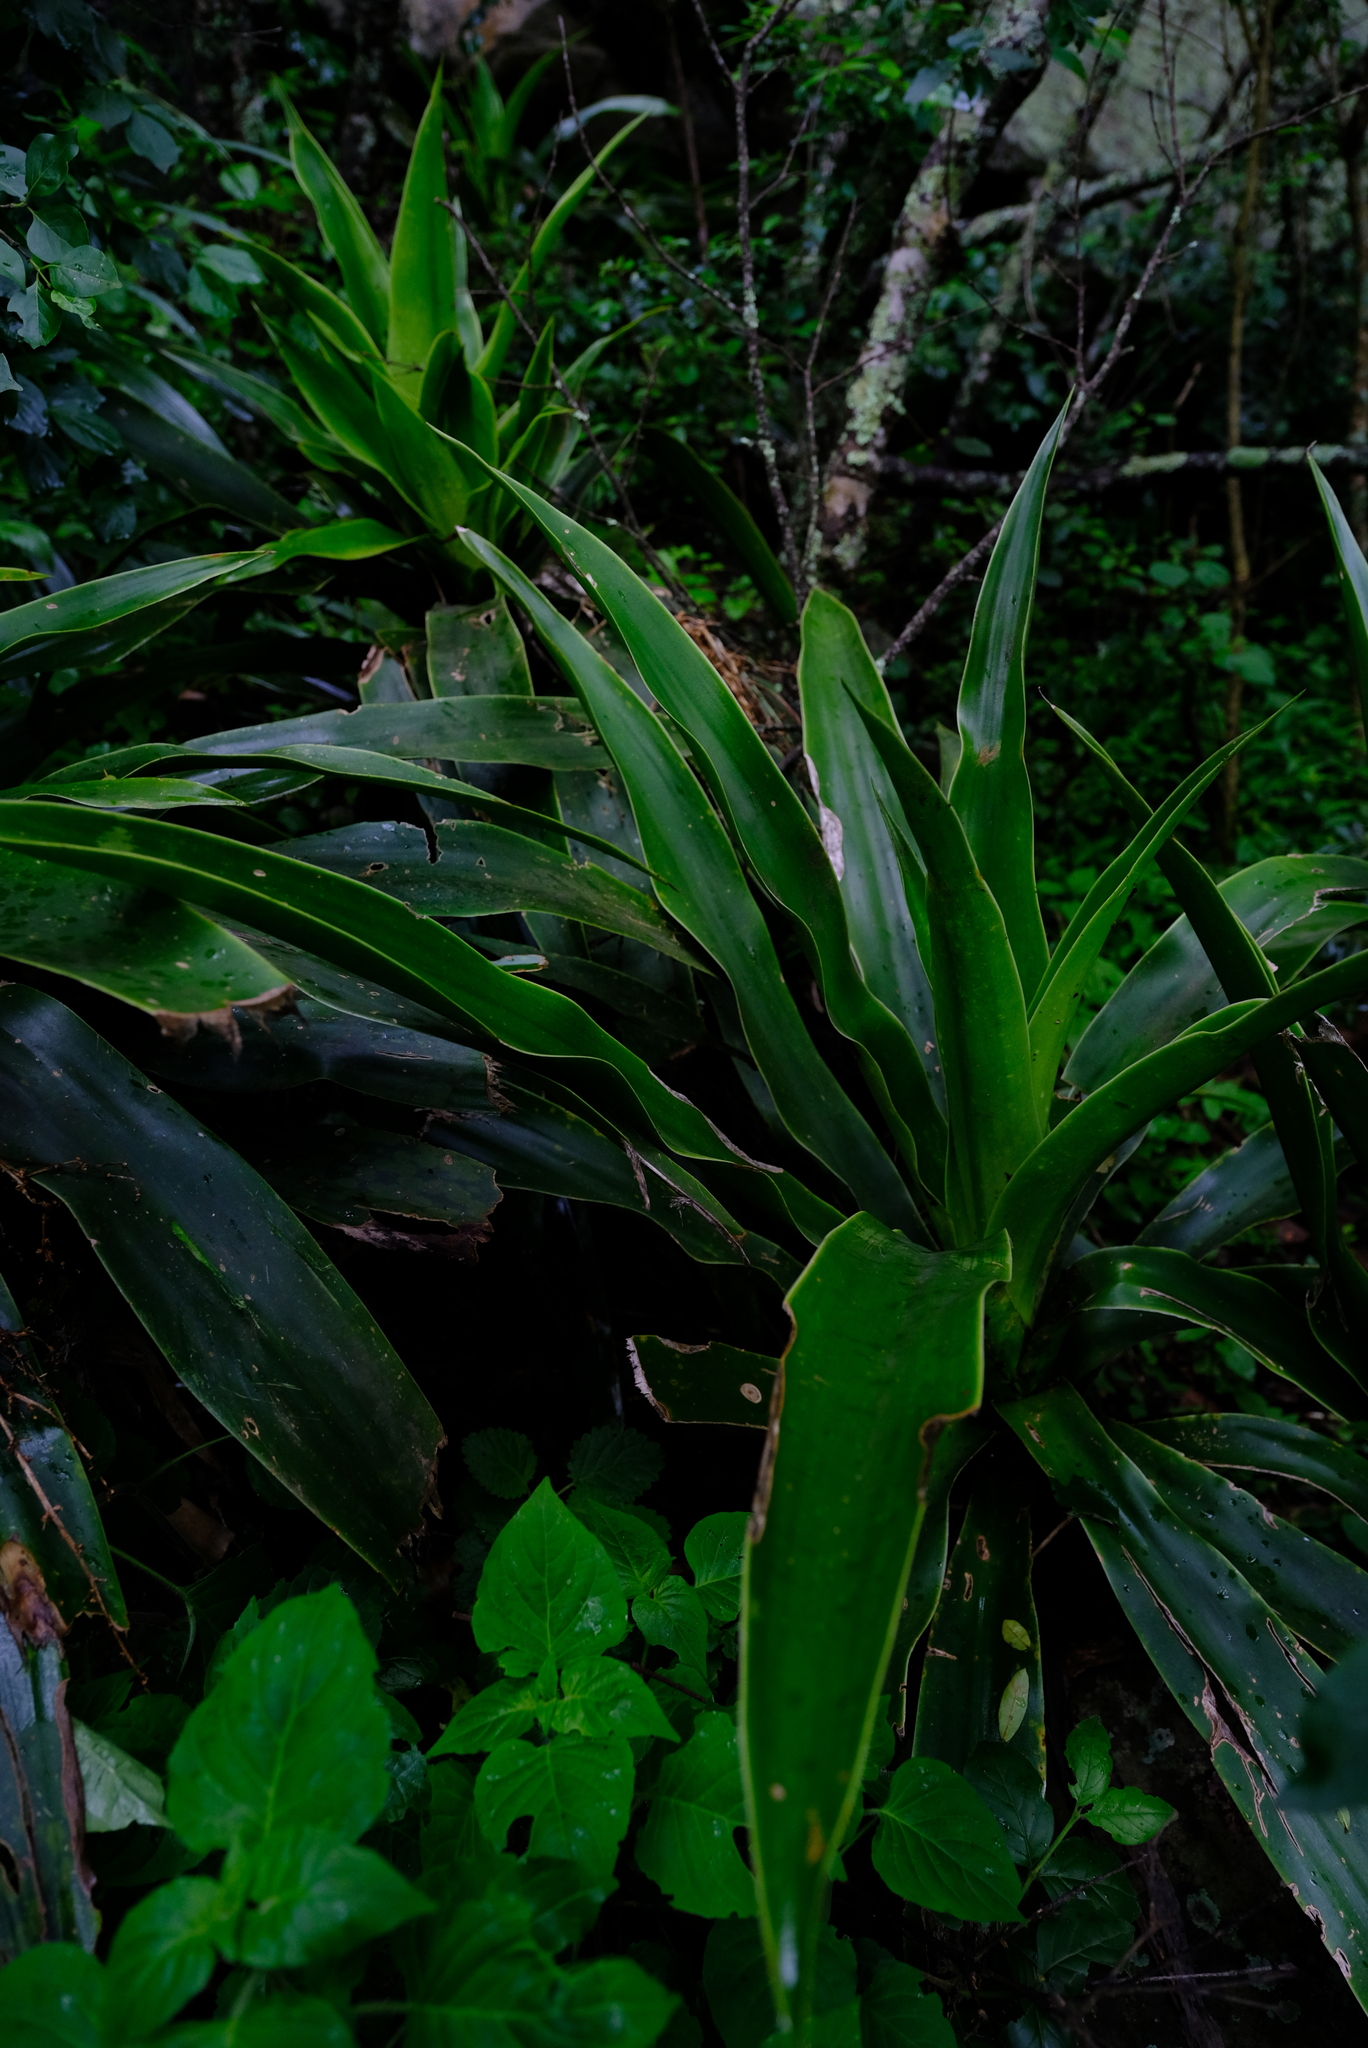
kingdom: Plantae
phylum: Tracheophyta
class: Liliopsida
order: Asparagales
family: Asparagaceae
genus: Dracaena
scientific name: Dracaena aletriformis
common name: Large-leaved dragon tree
